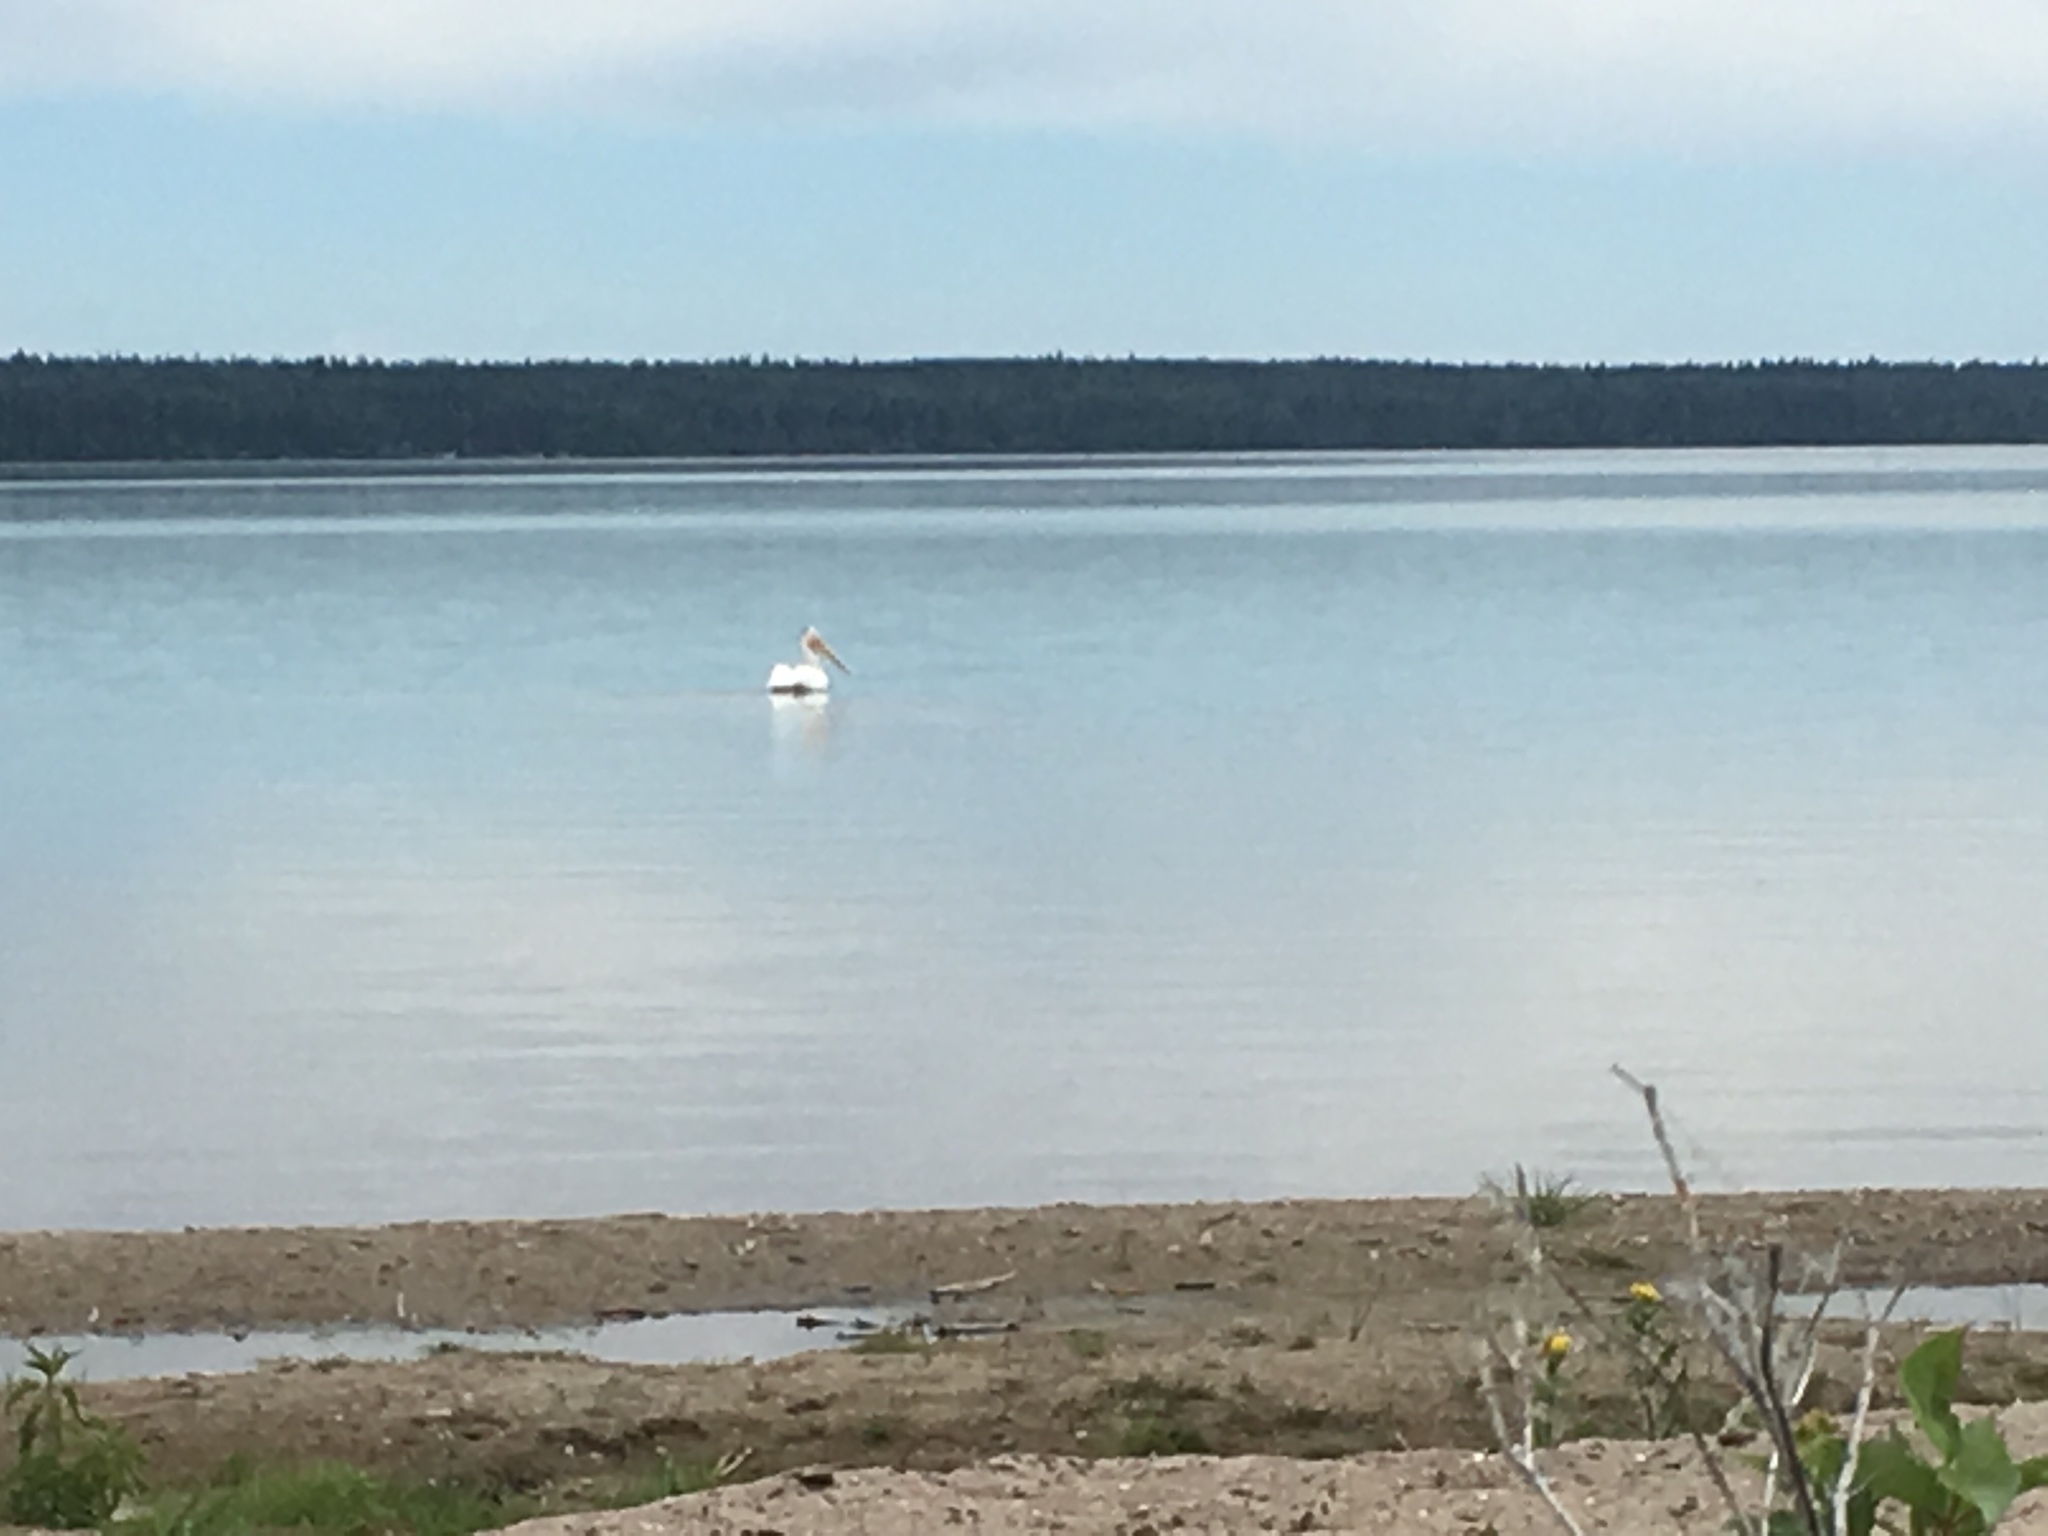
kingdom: Animalia
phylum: Chordata
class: Aves
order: Pelecaniformes
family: Pelecanidae
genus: Pelecanus
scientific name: Pelecanus erythrorhynchos
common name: American white pelican
